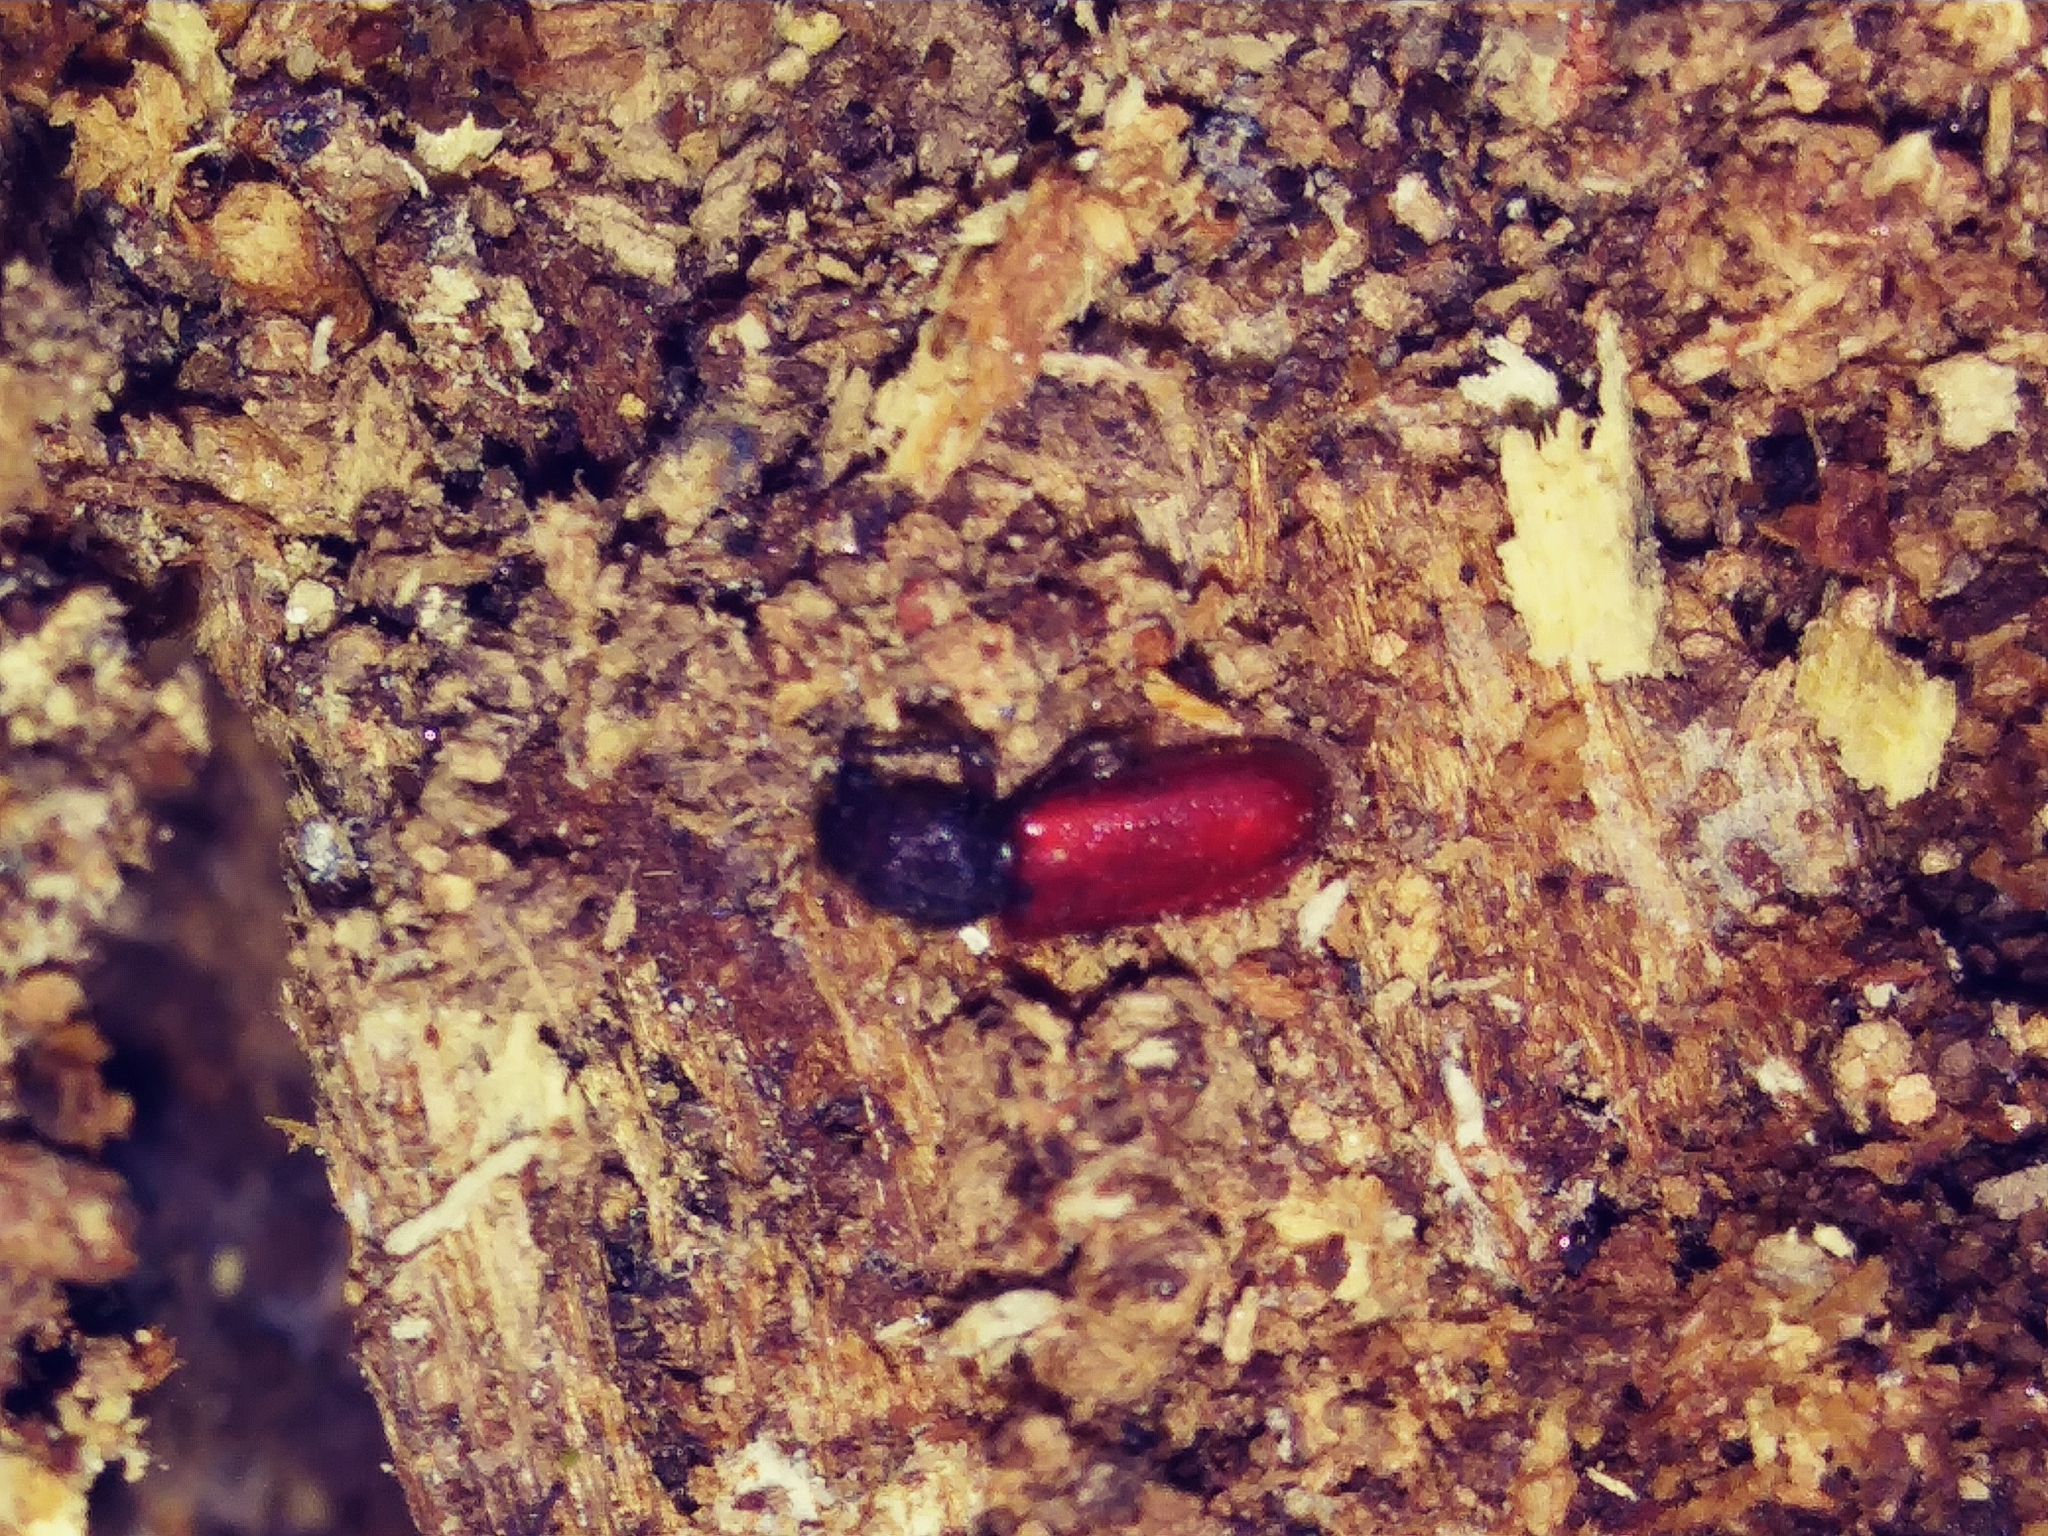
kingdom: Animalia
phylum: Arthropoda
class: Insecta
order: Coleoptera
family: Thanerocleridae
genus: Zenodosus
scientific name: Zenodosus sanguineus
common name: Blood-colored checkered beetle
